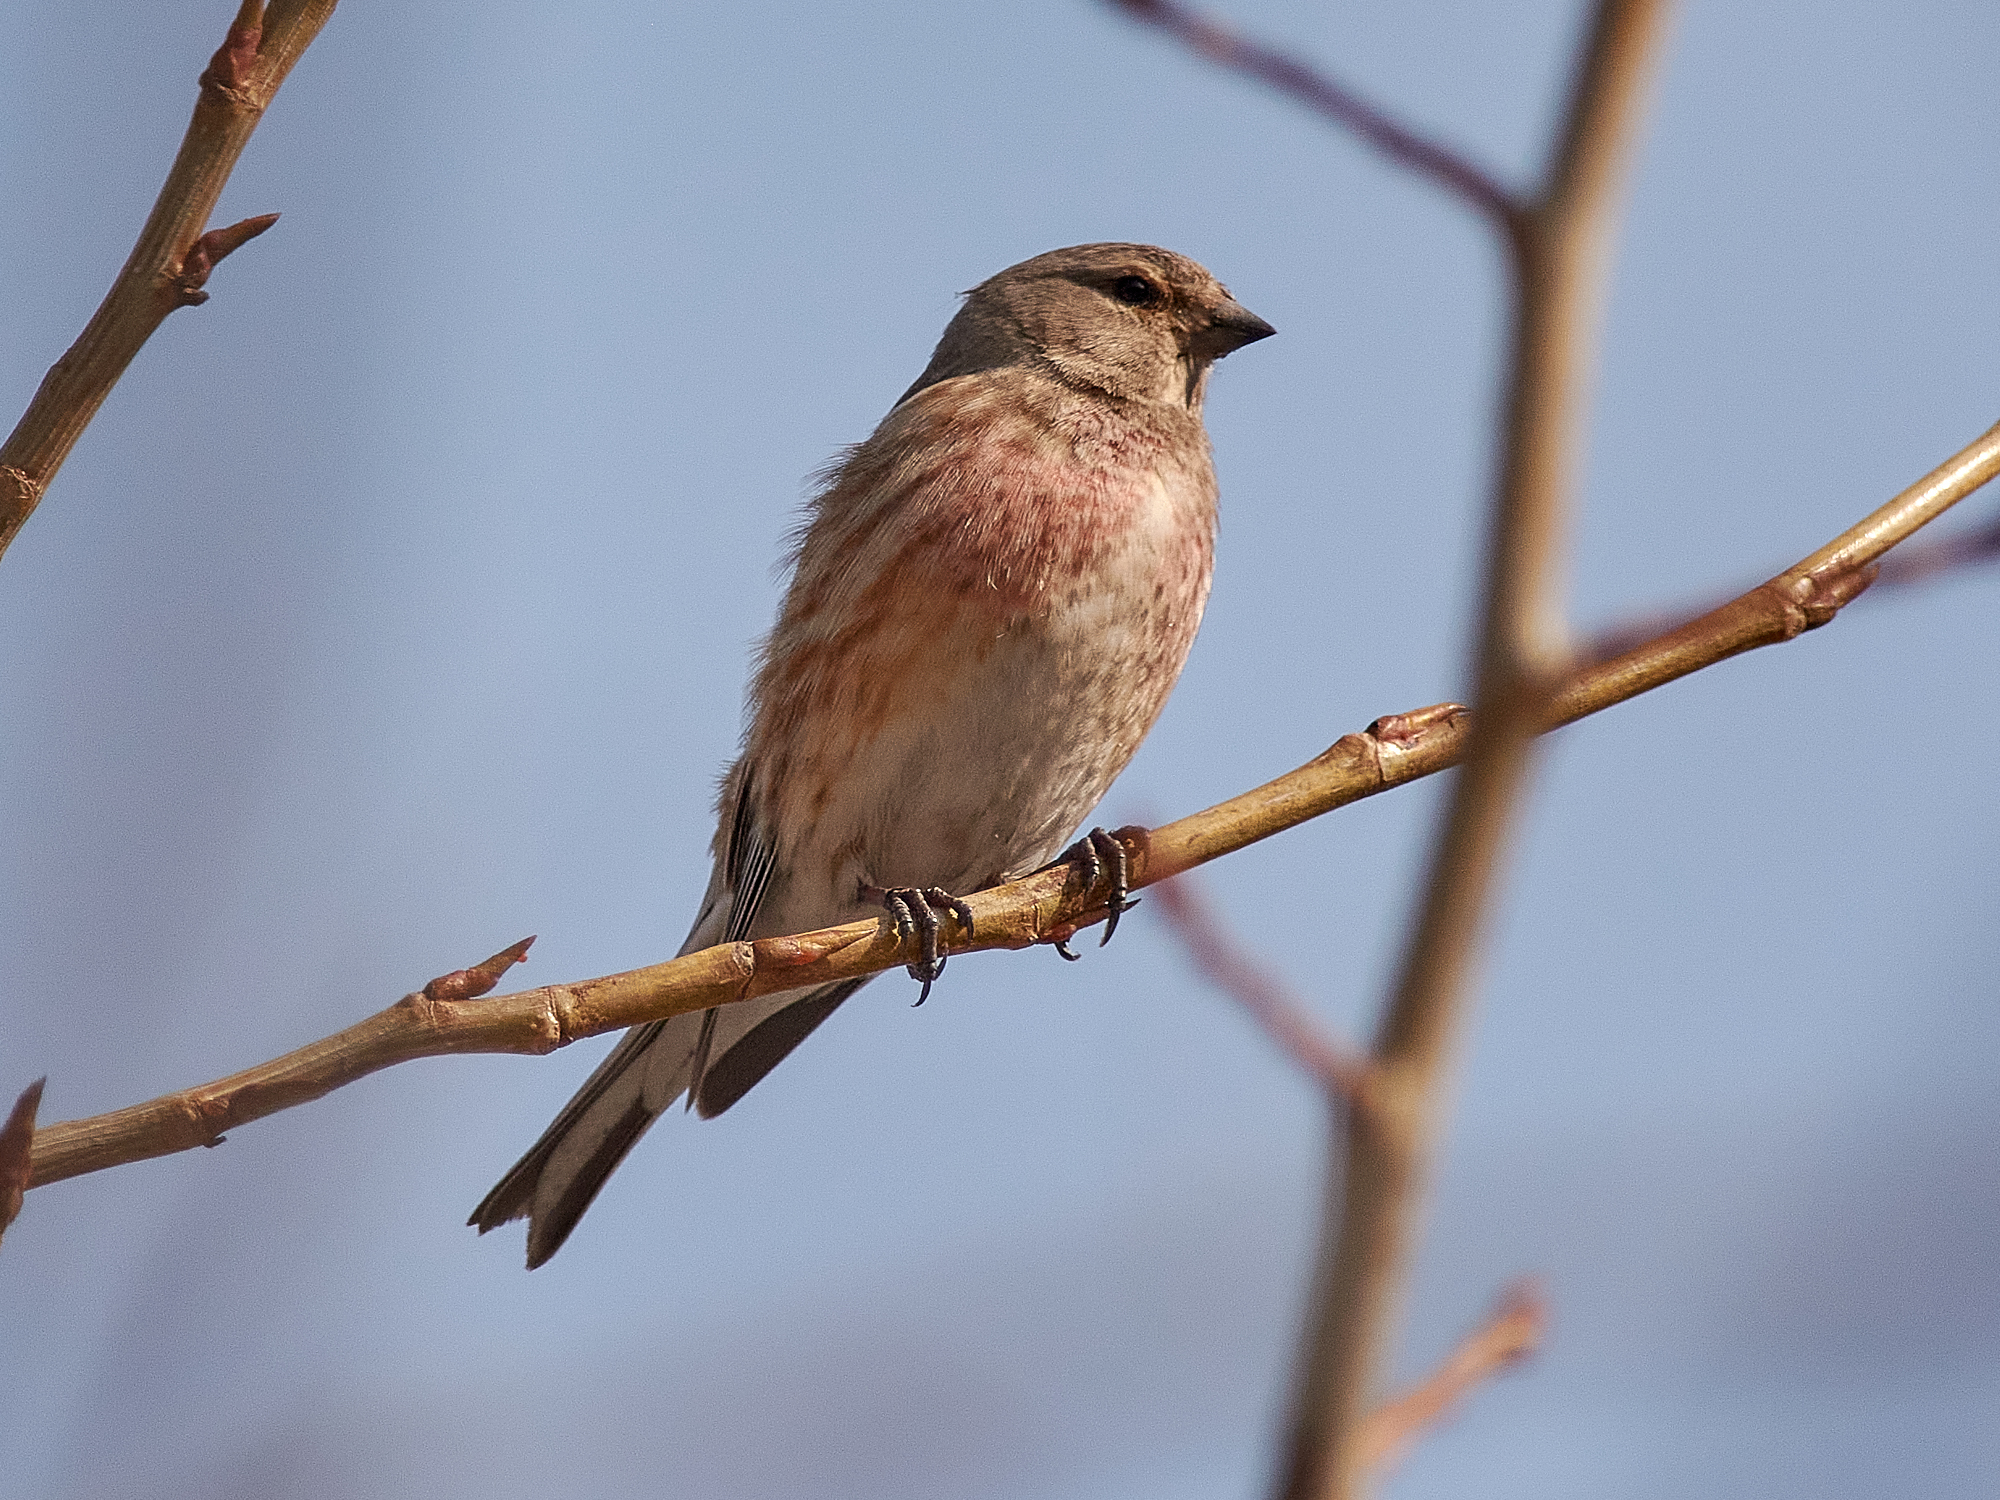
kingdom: Animalia
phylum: Chordata
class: Aves
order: Passeriformes
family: Fringillidae
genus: Linaria
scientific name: Linaria cannabina
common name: Common linnet
